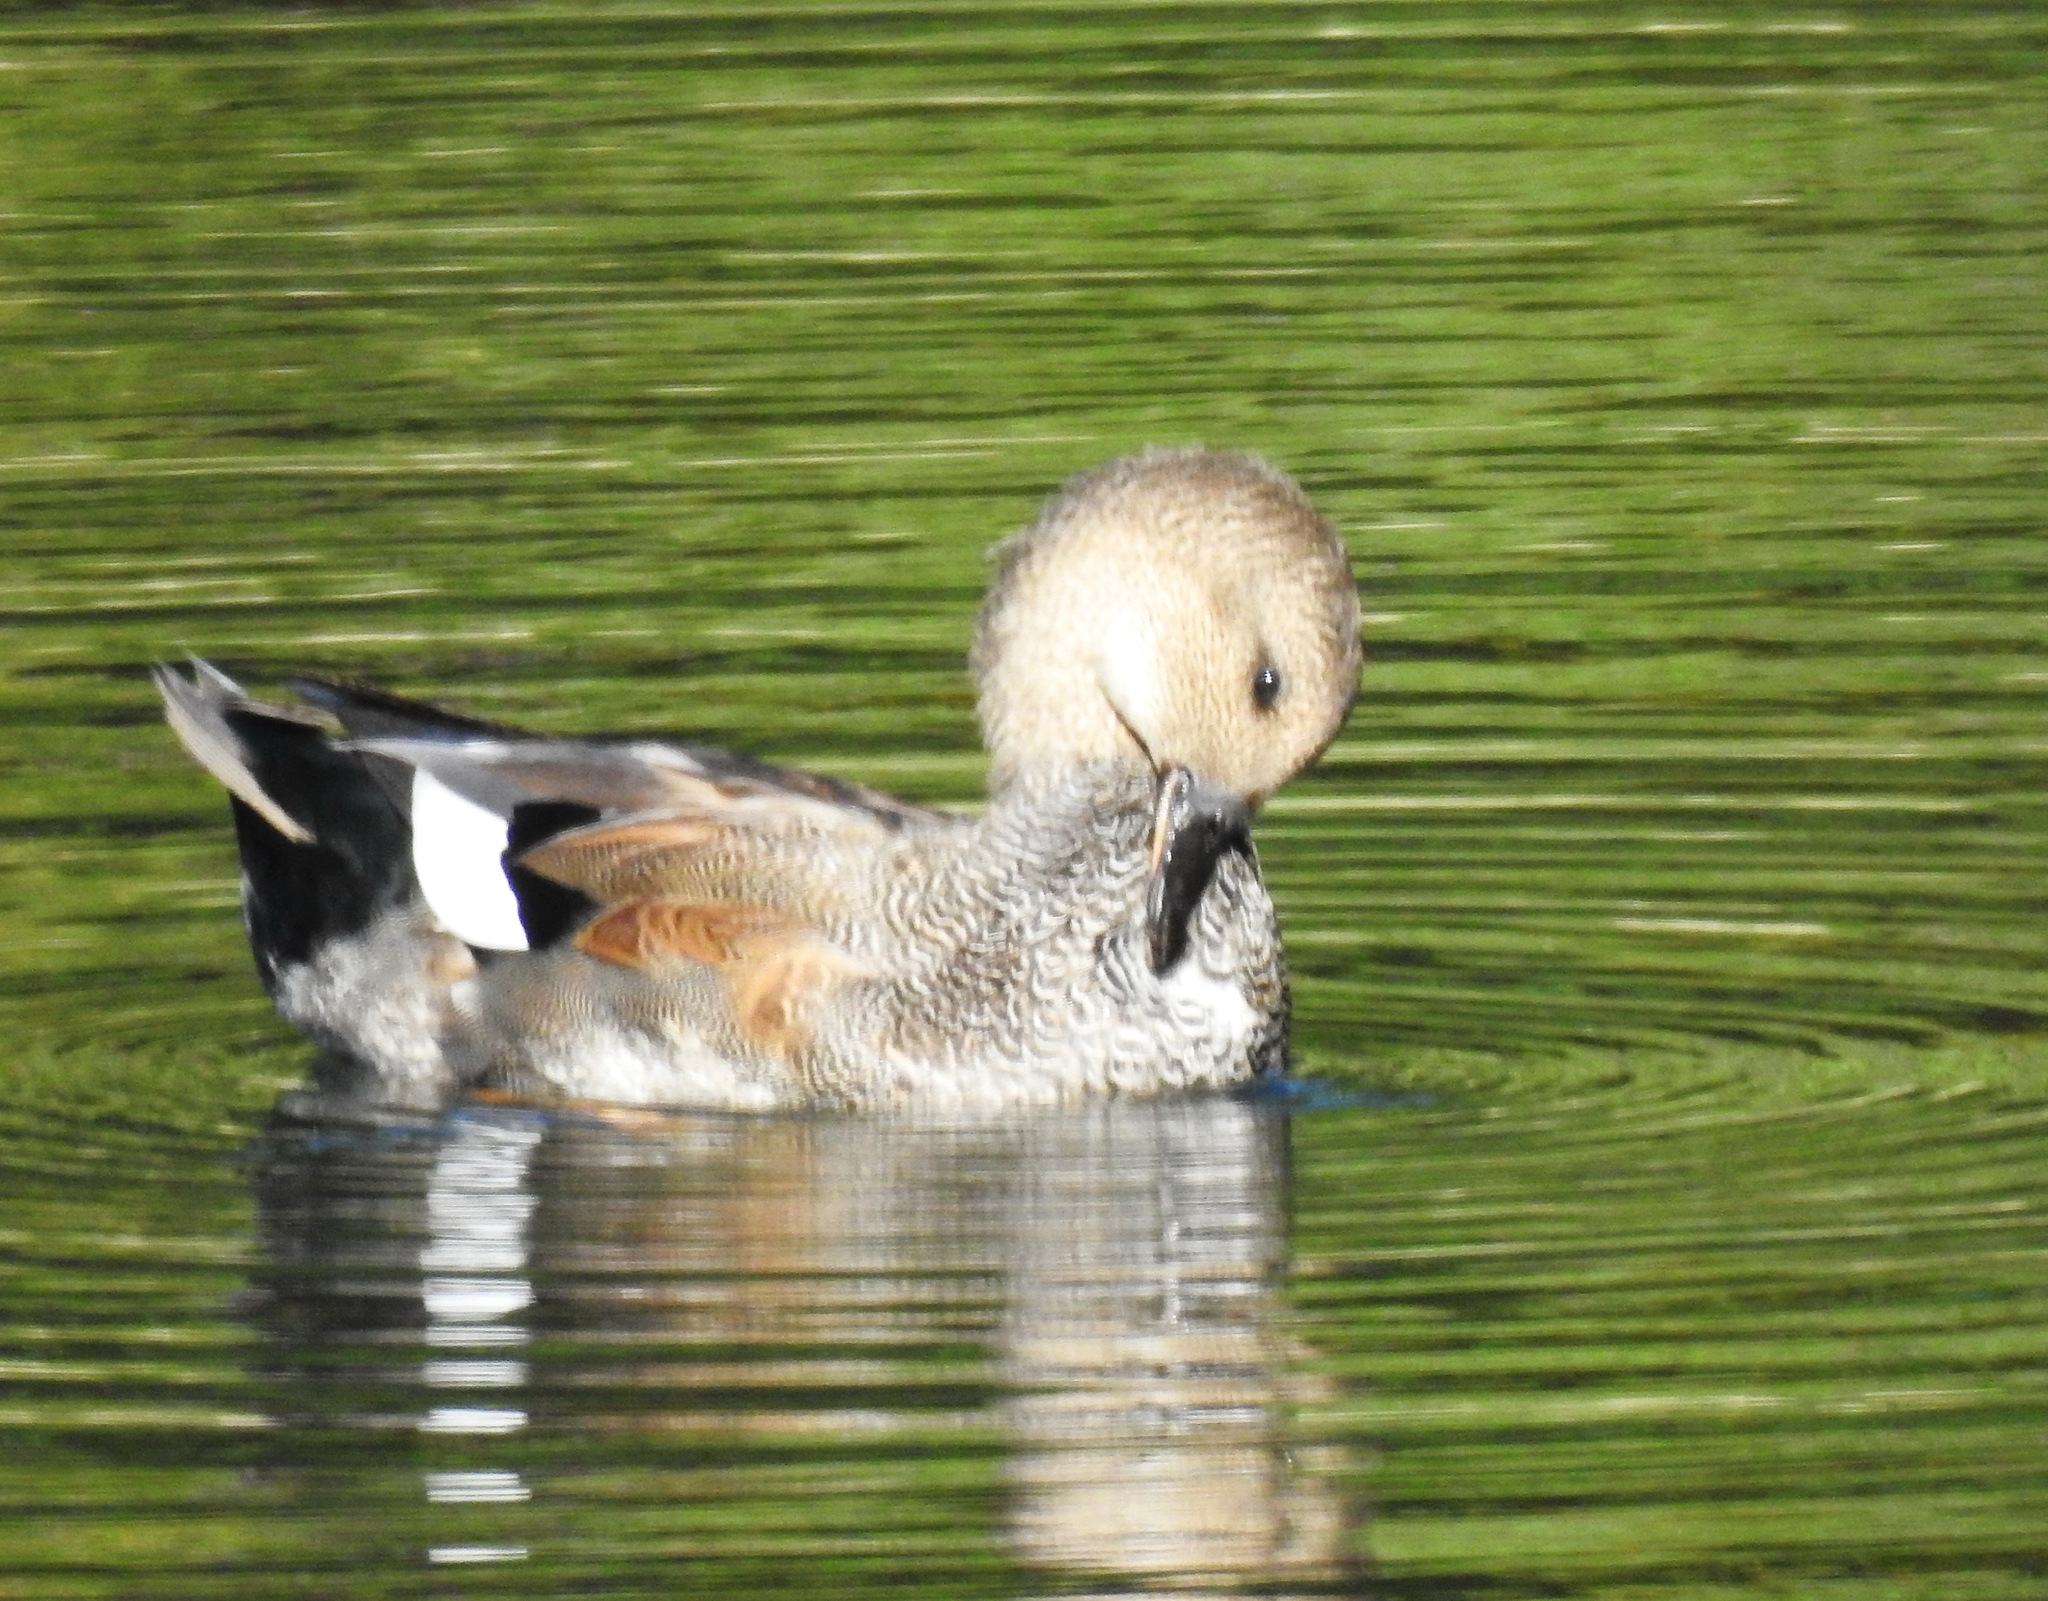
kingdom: Animalia
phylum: Chordata
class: Aves
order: Anseriformes
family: Anatidae
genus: Mareca
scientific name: Mareca strepera
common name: Gadwall
